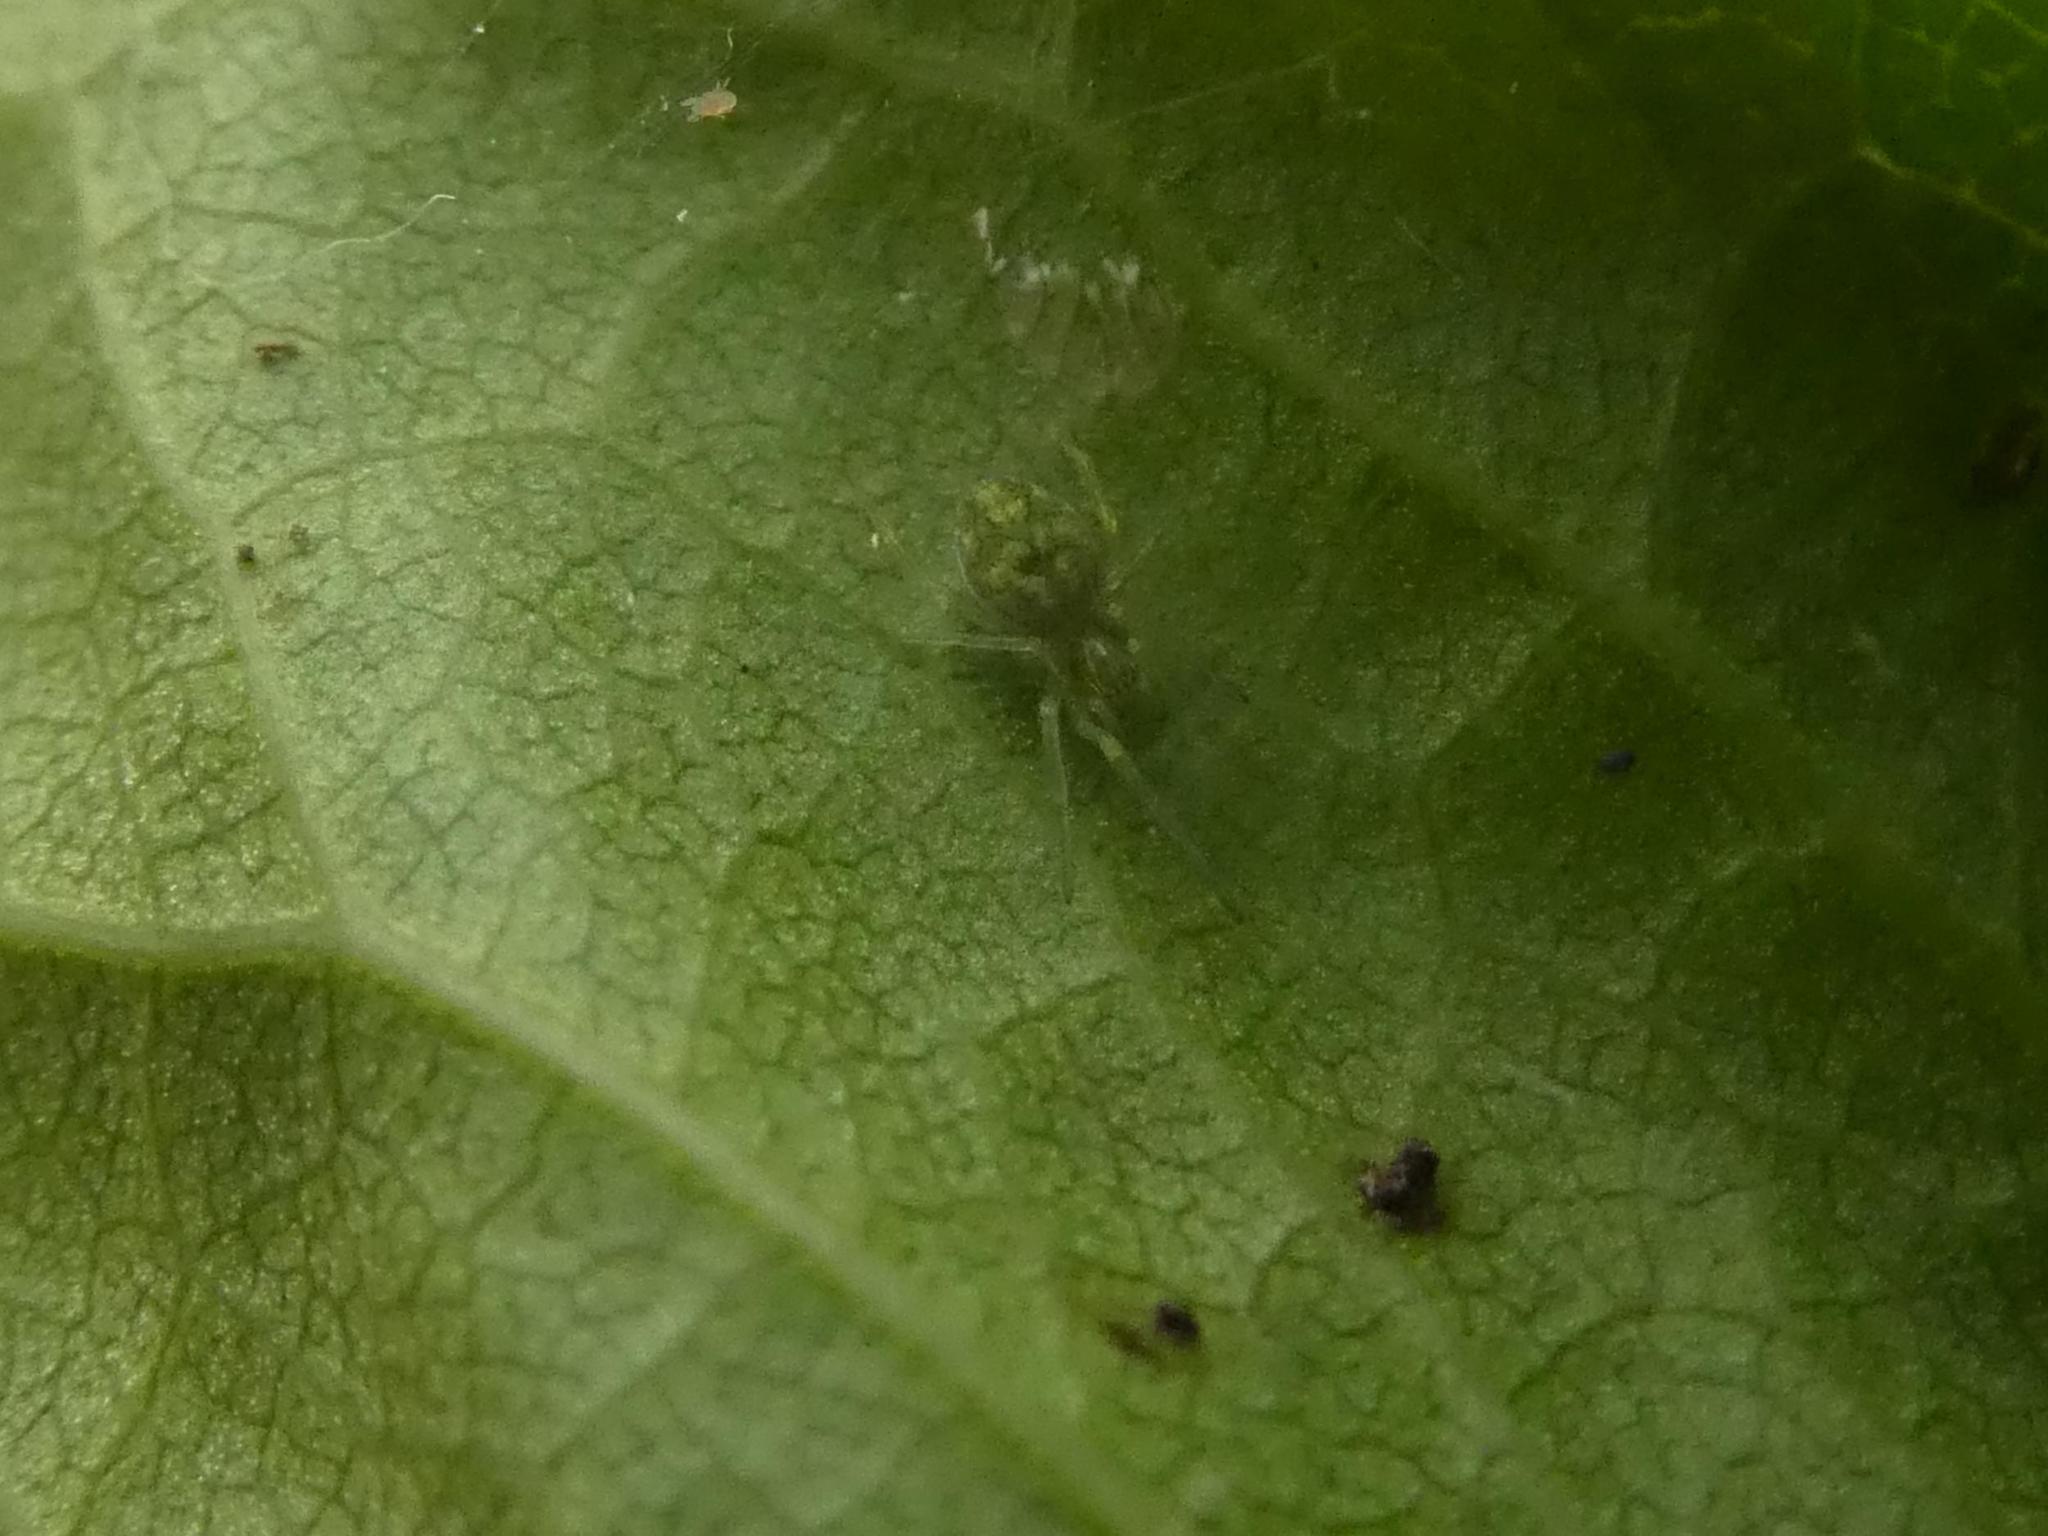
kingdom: Animalia
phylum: Arthropoda
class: Arachnida
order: Araneae
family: Dictynidae
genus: Nigma
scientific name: Nigma walckenaeri
